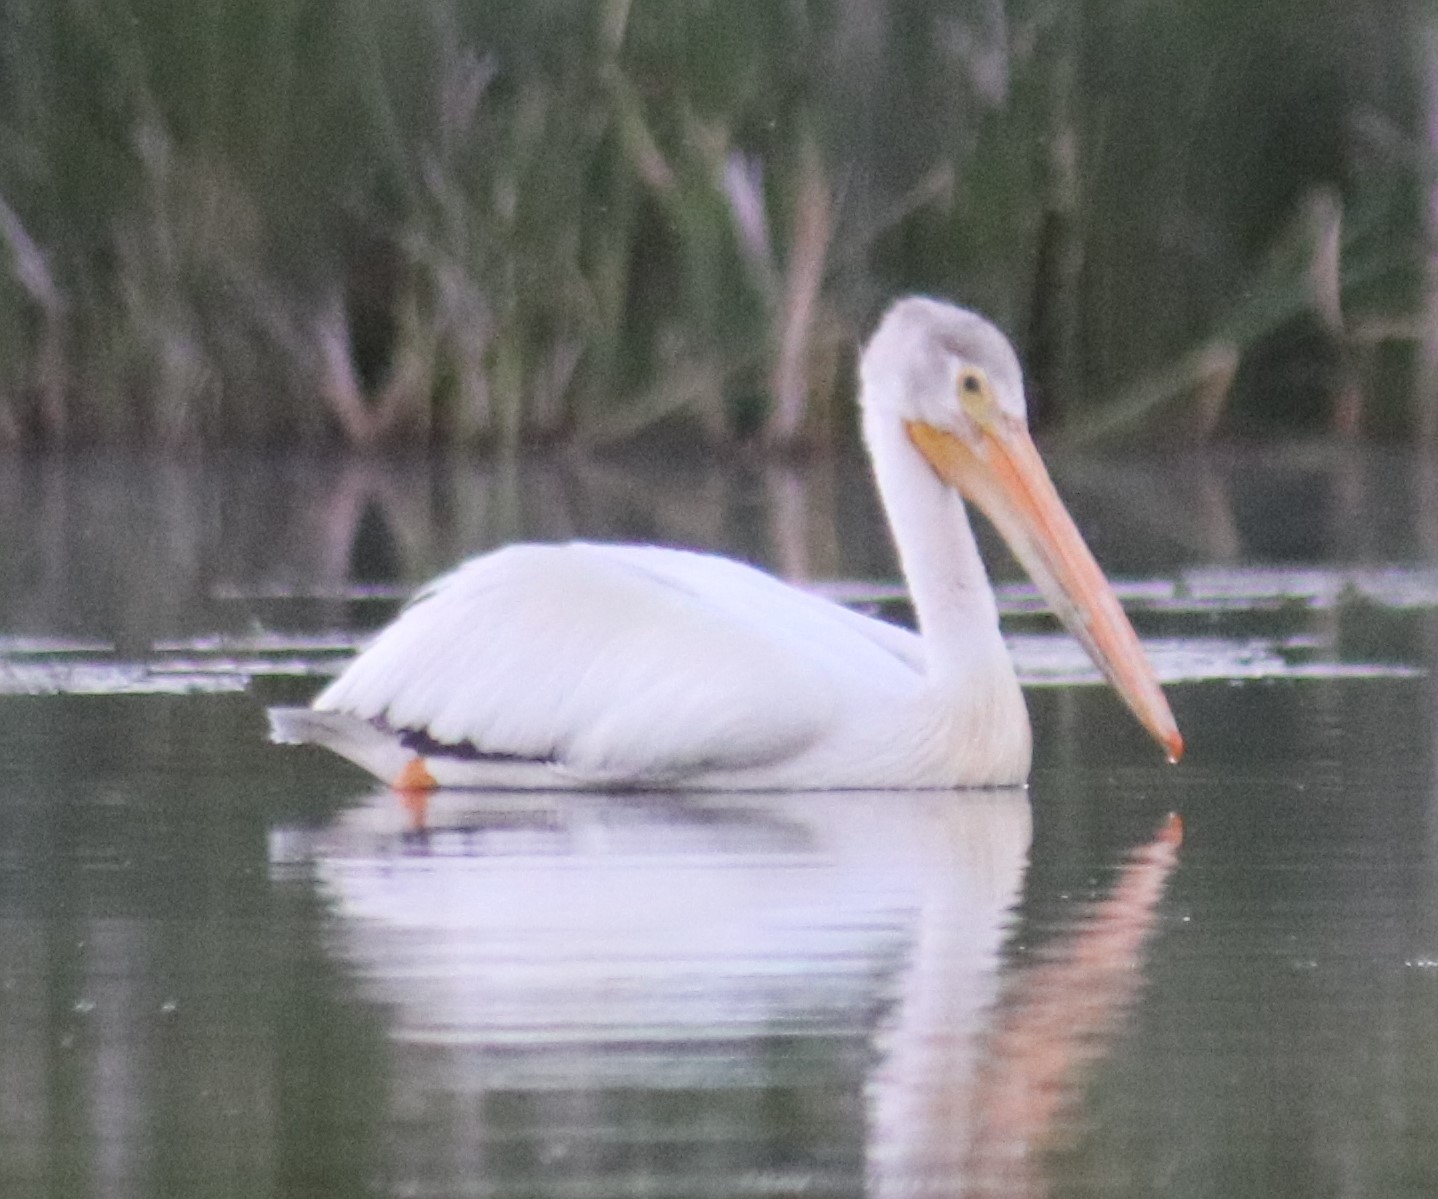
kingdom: Animalia
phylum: Chordata
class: Aves
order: Pelecaniformes
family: Pelecanidae
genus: Pelecanus
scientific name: Pelecanus erythrorhynchos
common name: American white pelican
